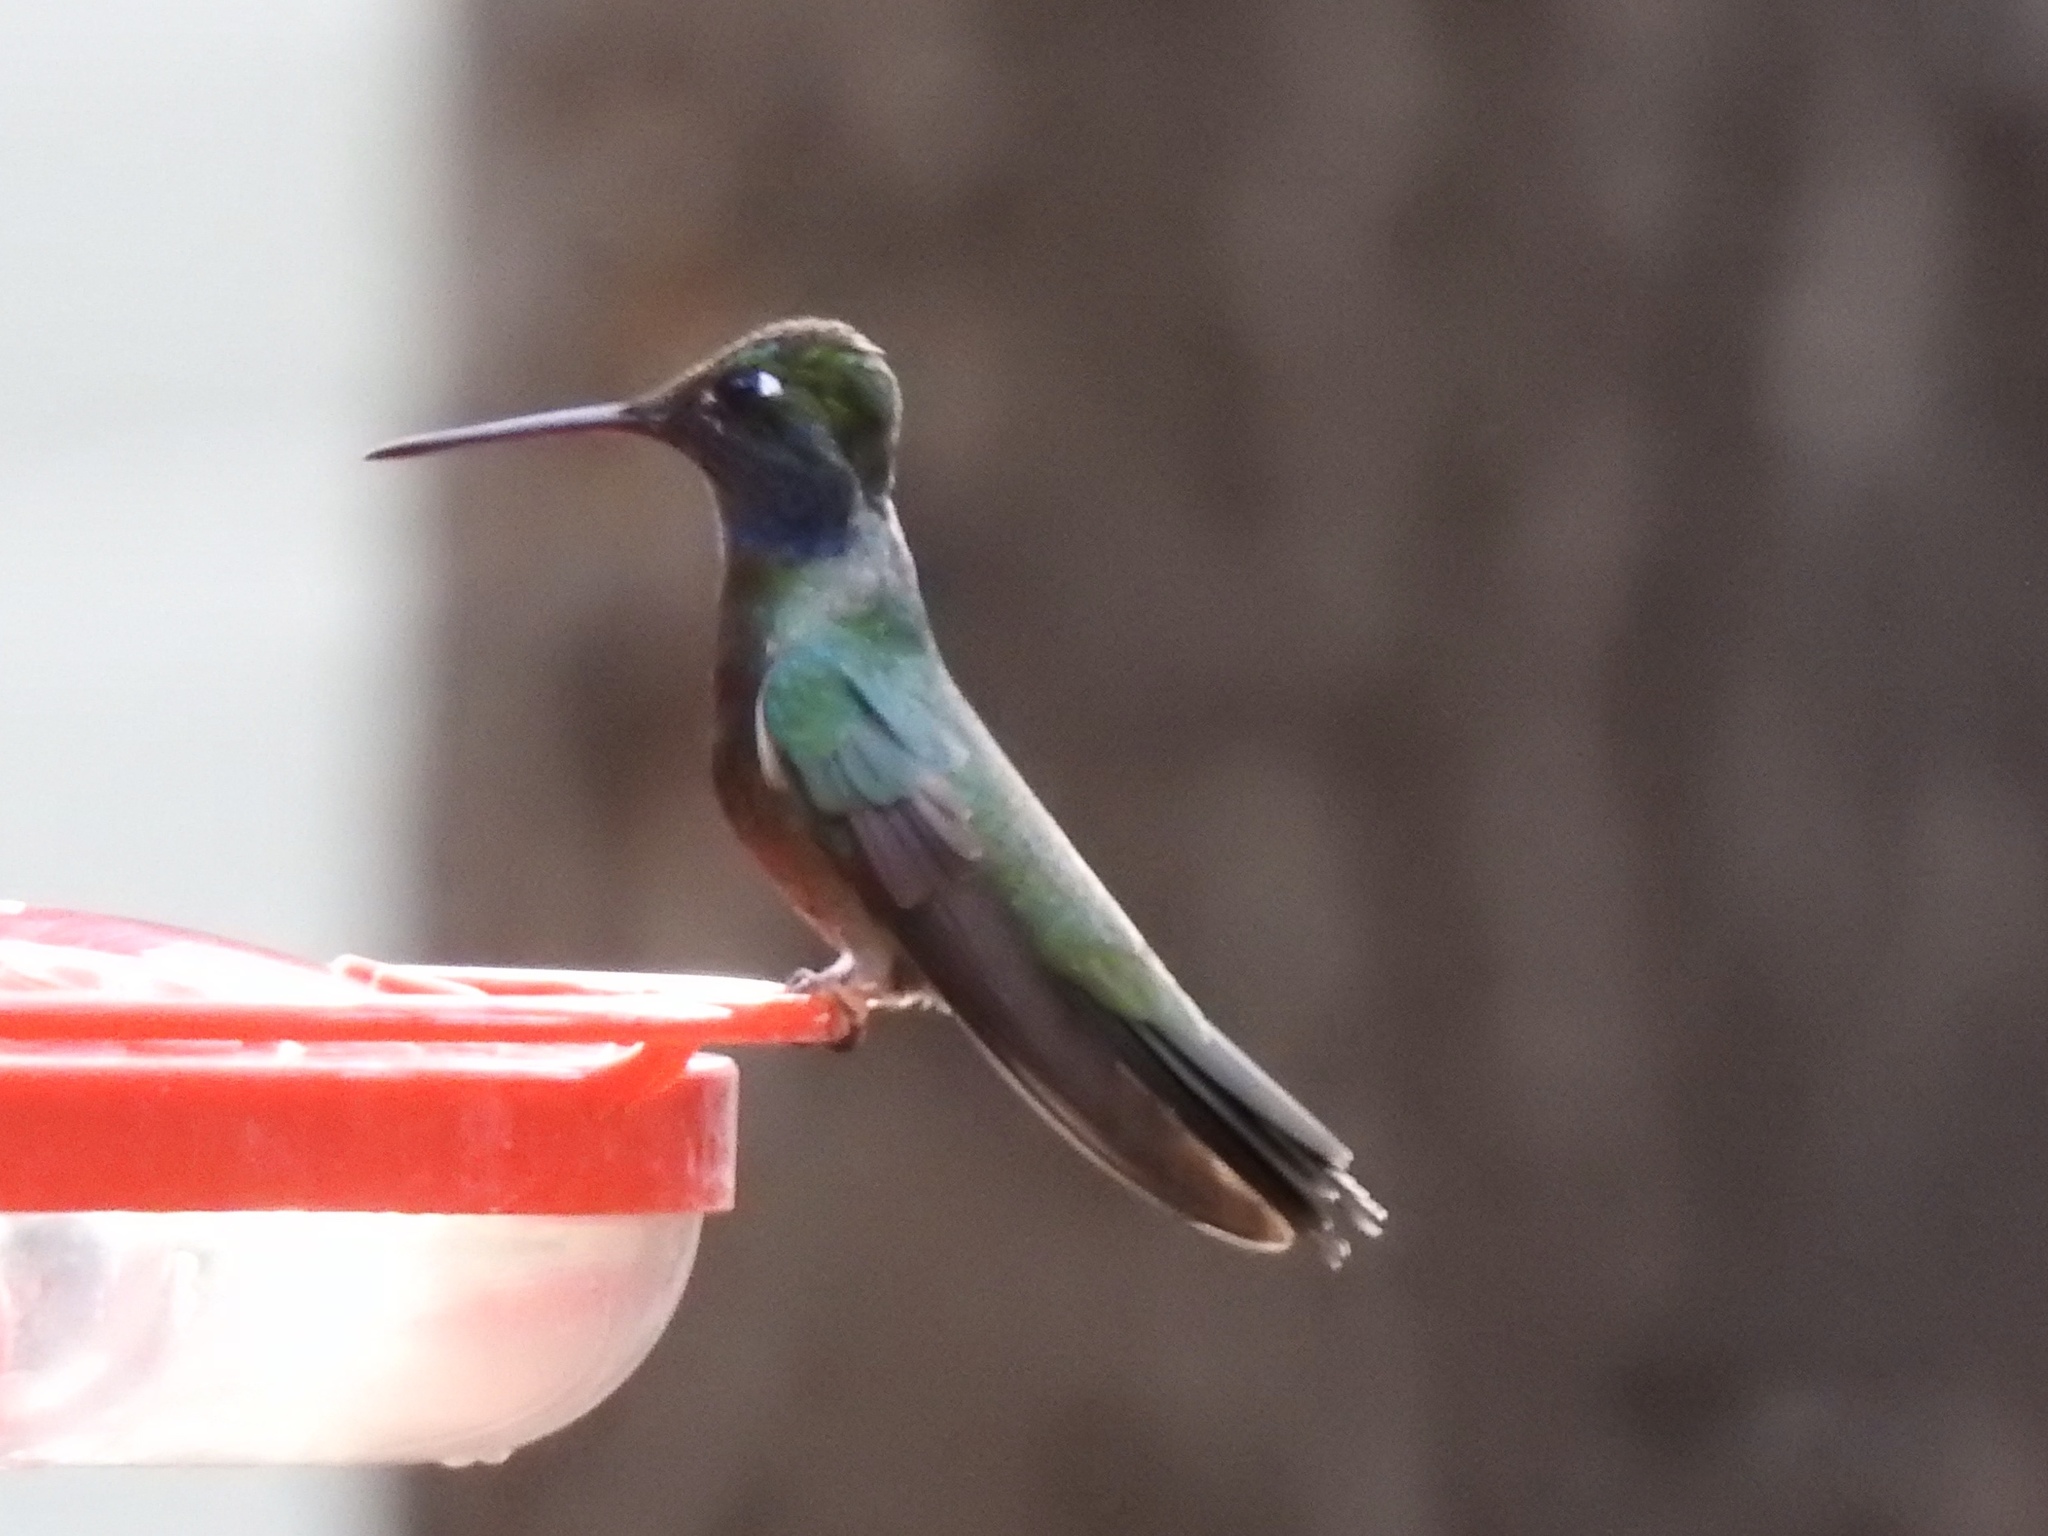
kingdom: Animalia
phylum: Chordata
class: Aves
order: Apodiformes
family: Trochilidae
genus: Eugenes
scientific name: Eugenes fulgens
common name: Magnificent hummingbird
